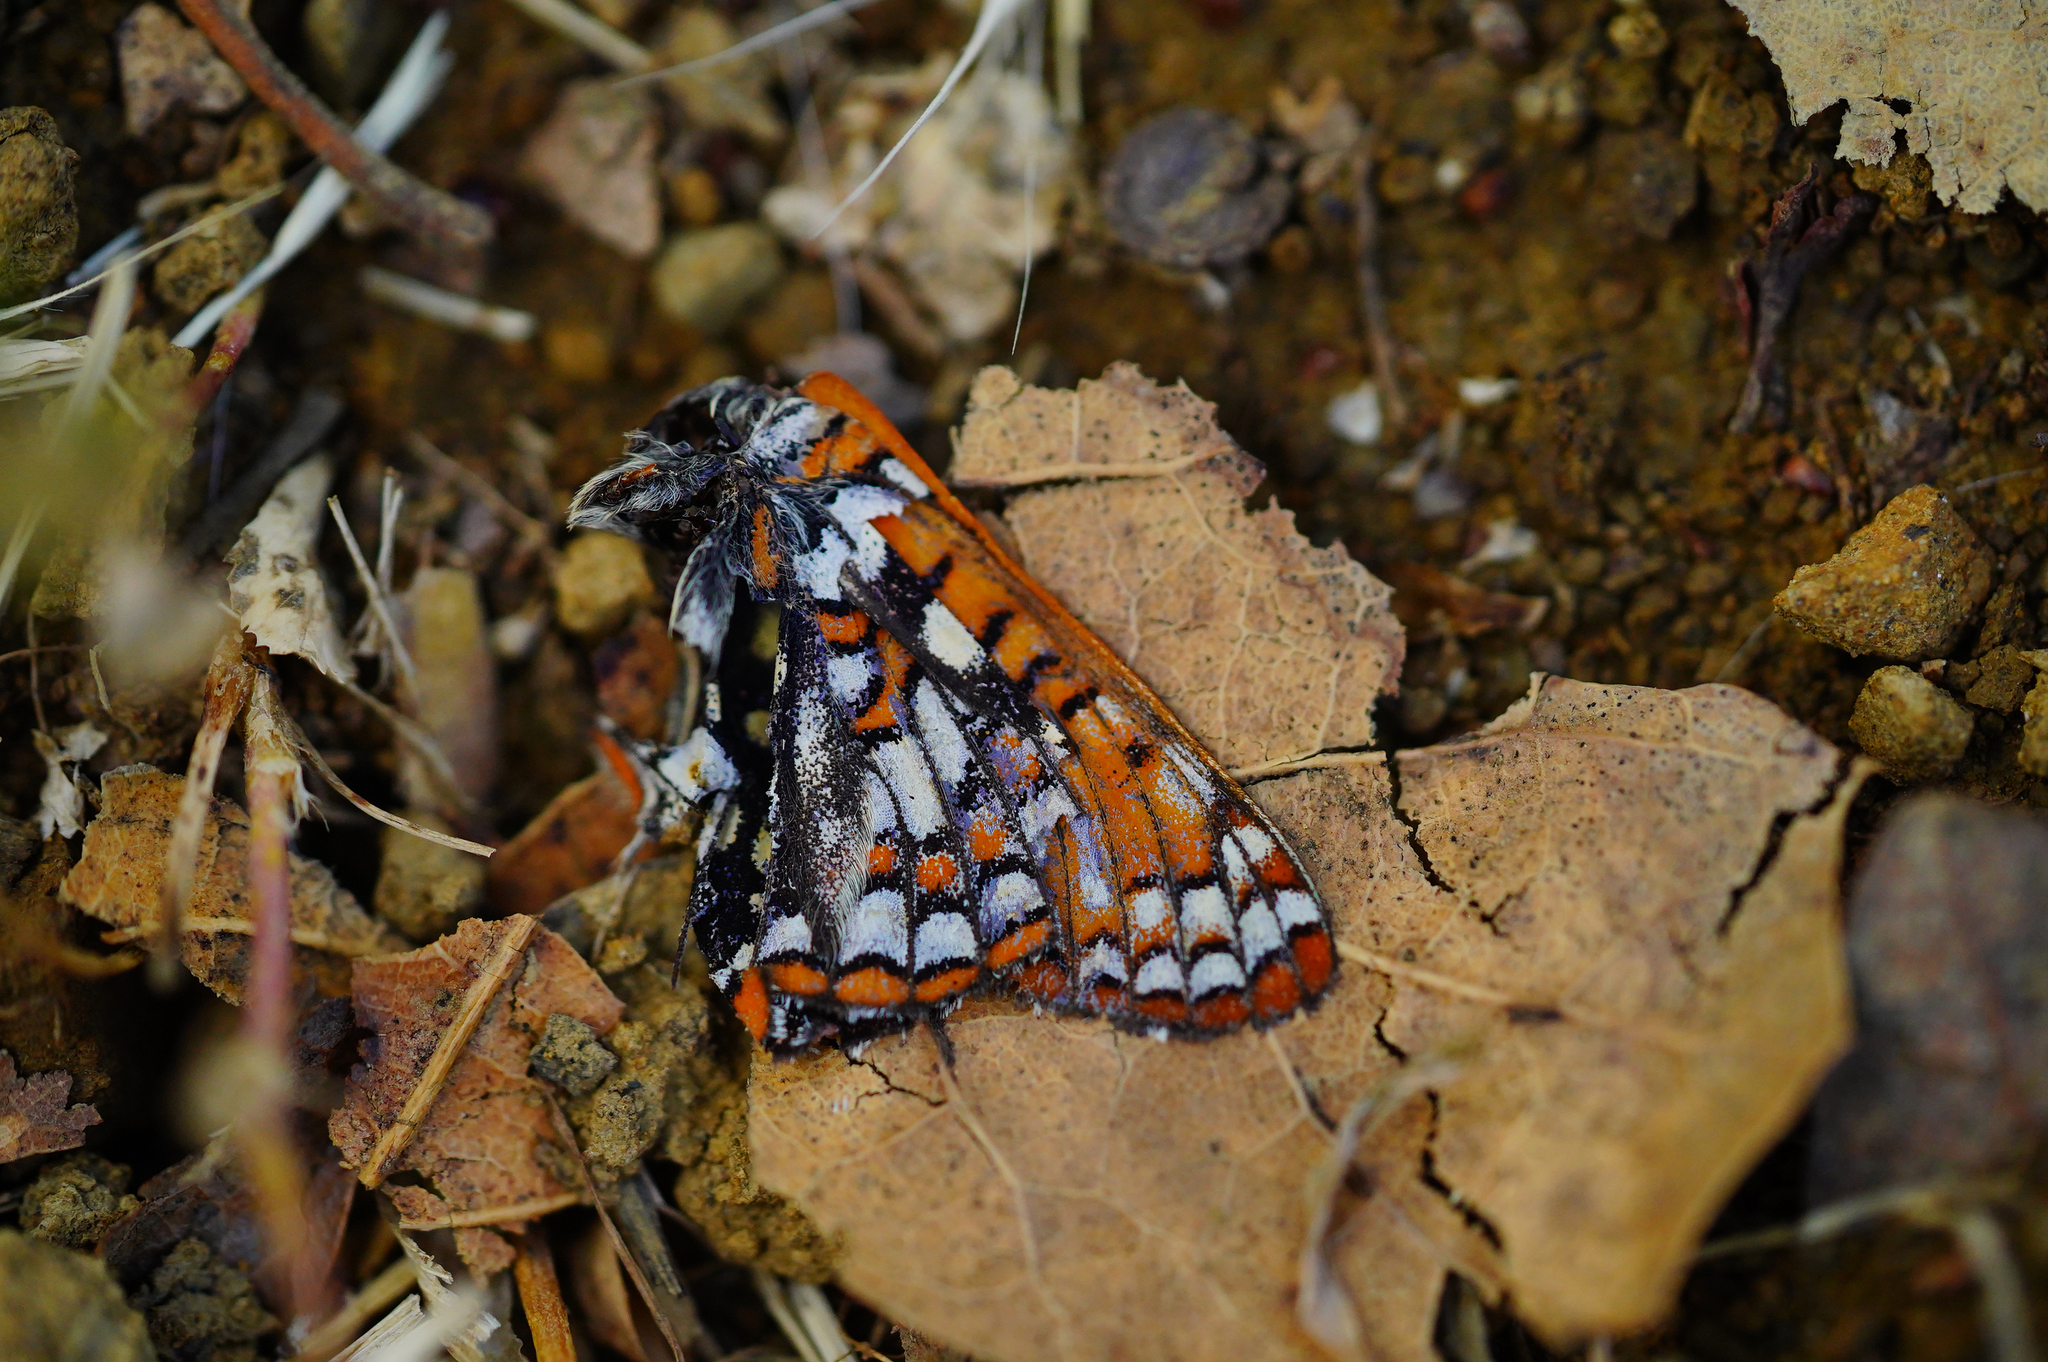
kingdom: Animalia
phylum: Arthropoda
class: Insecta
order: Lepidoptera
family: Nymphalidae
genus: Occidryas
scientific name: Occidryas chalcedona
